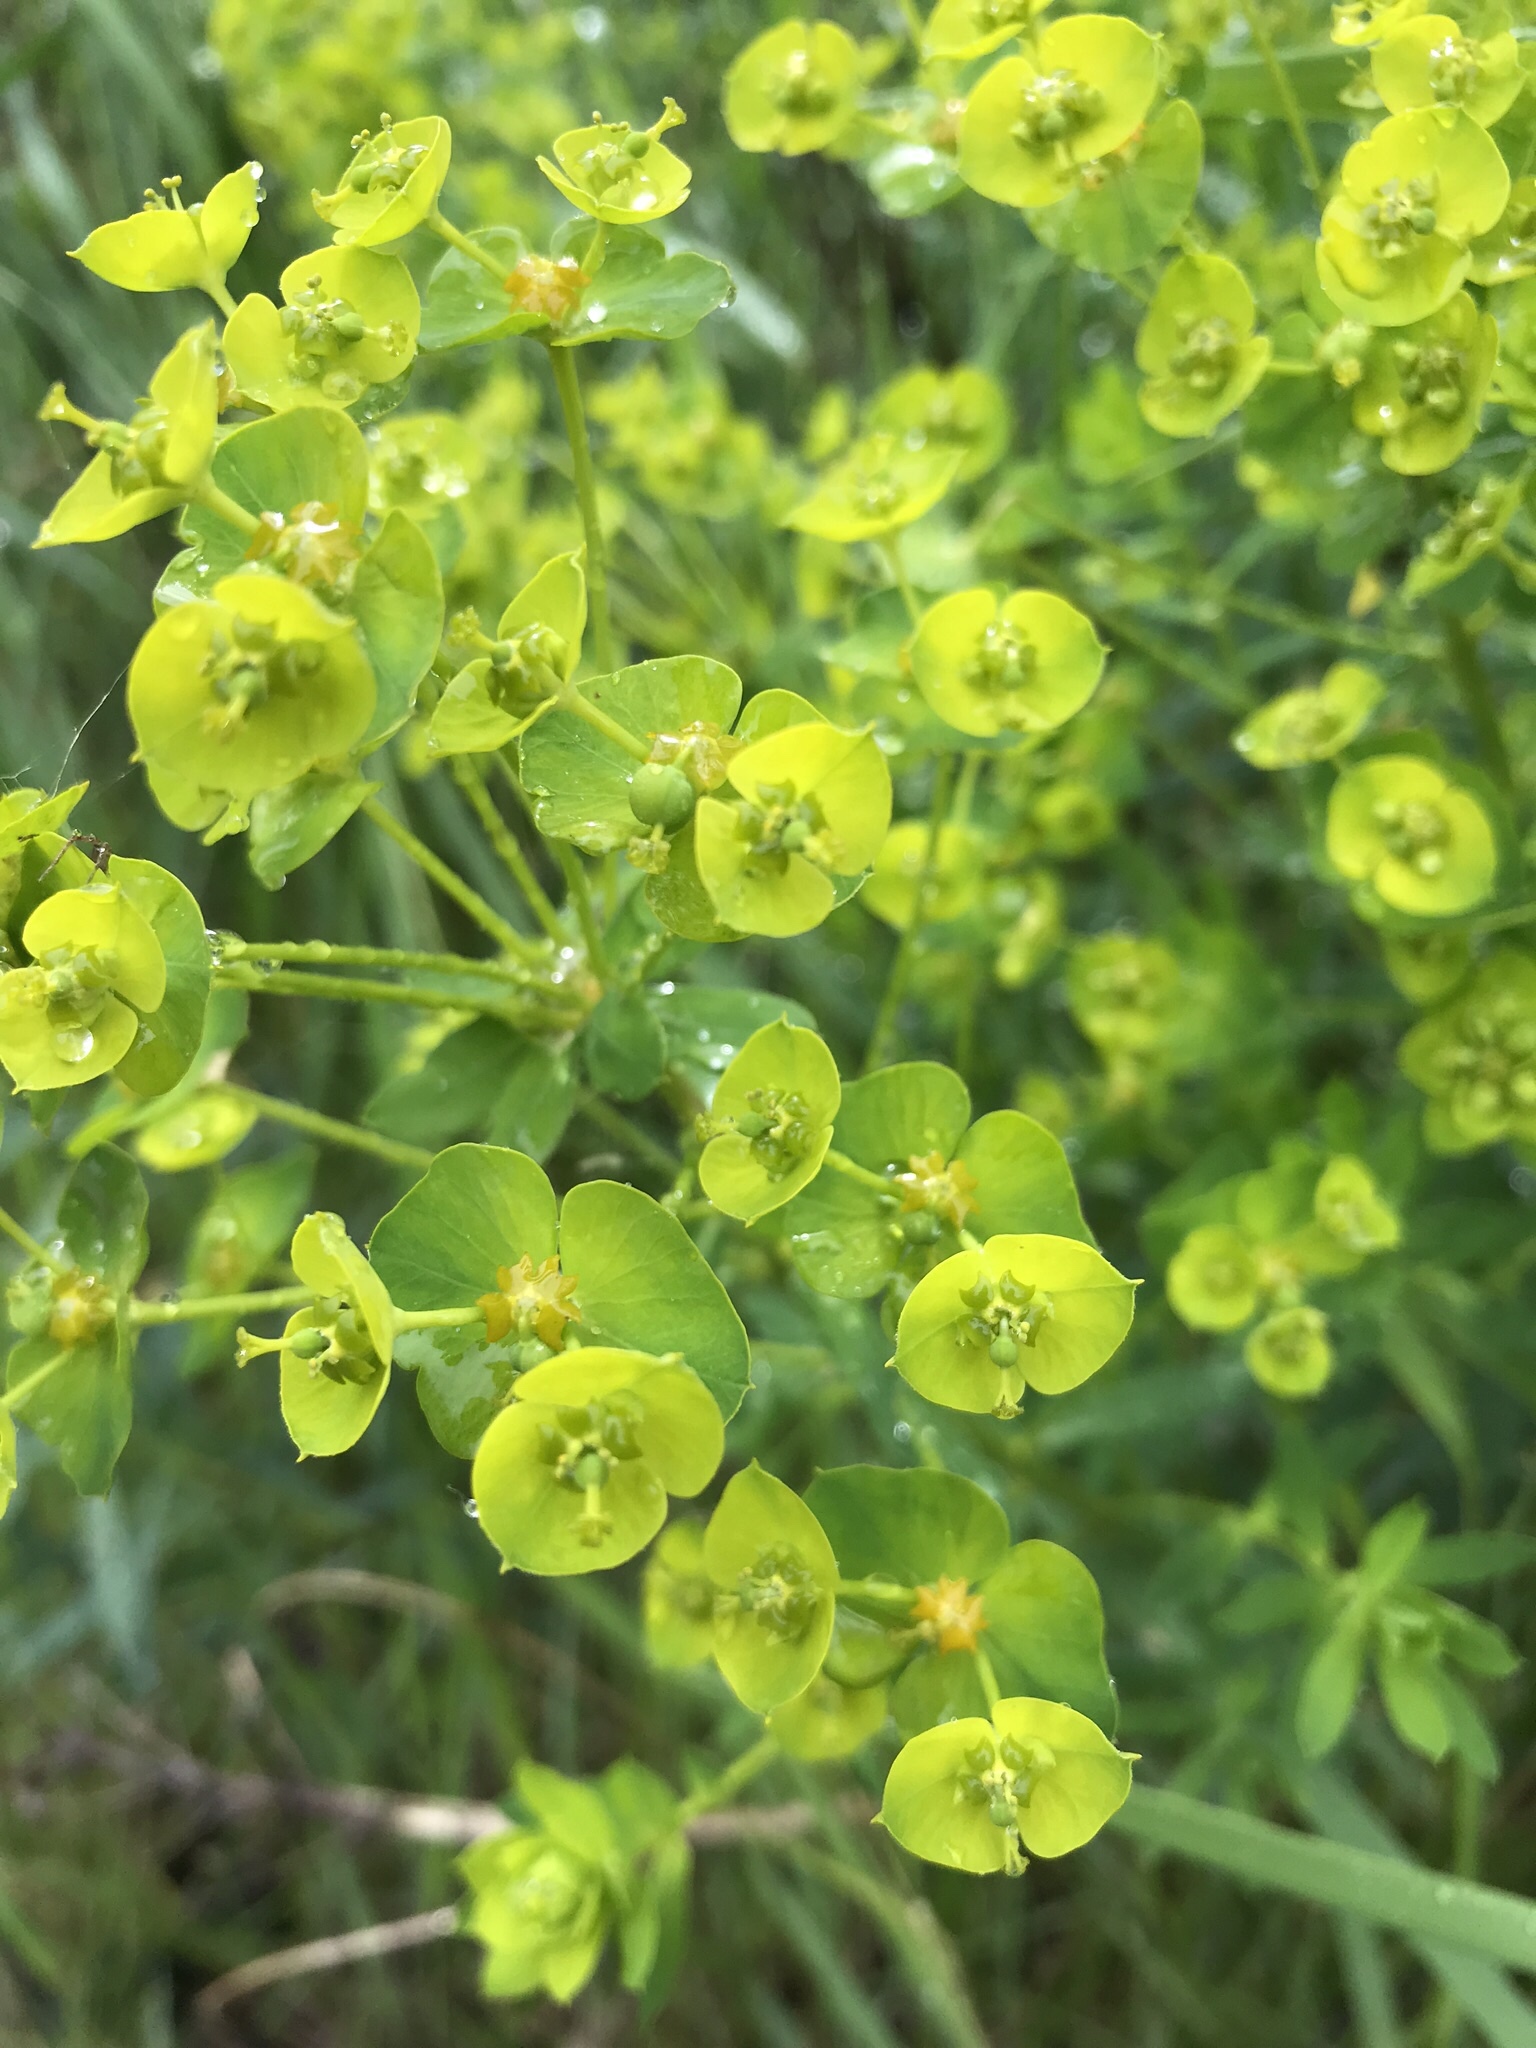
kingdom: Plantae
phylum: Tracheophyta
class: Magnoliopsida
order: Malpighiales
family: Euphorbiaceae
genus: Euphorbia
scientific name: Euphorbia virgata
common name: Leafy spurge
